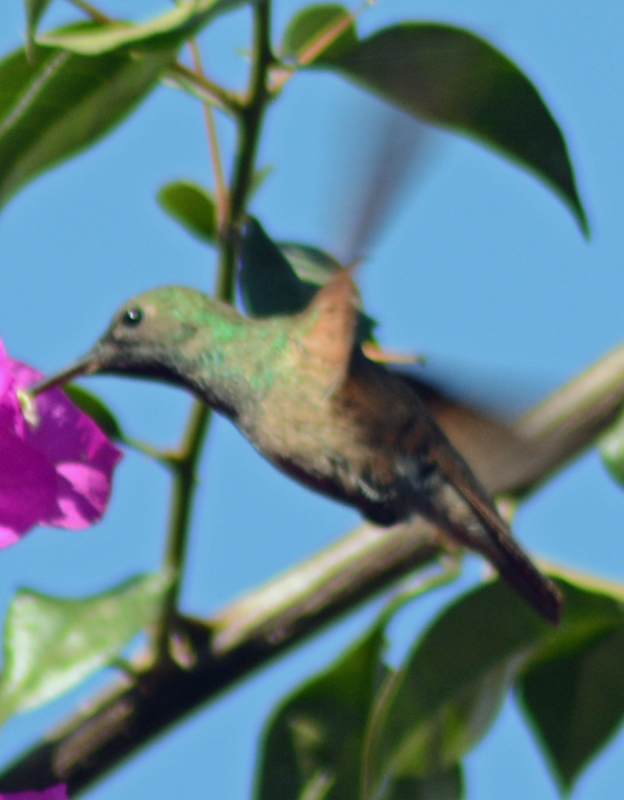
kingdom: Animalia
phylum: Chordata
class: Aves
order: Apodiformes
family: Trochilidae
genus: Saucerottia
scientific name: Saucerottia beryllina
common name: Berylline hummingbird
